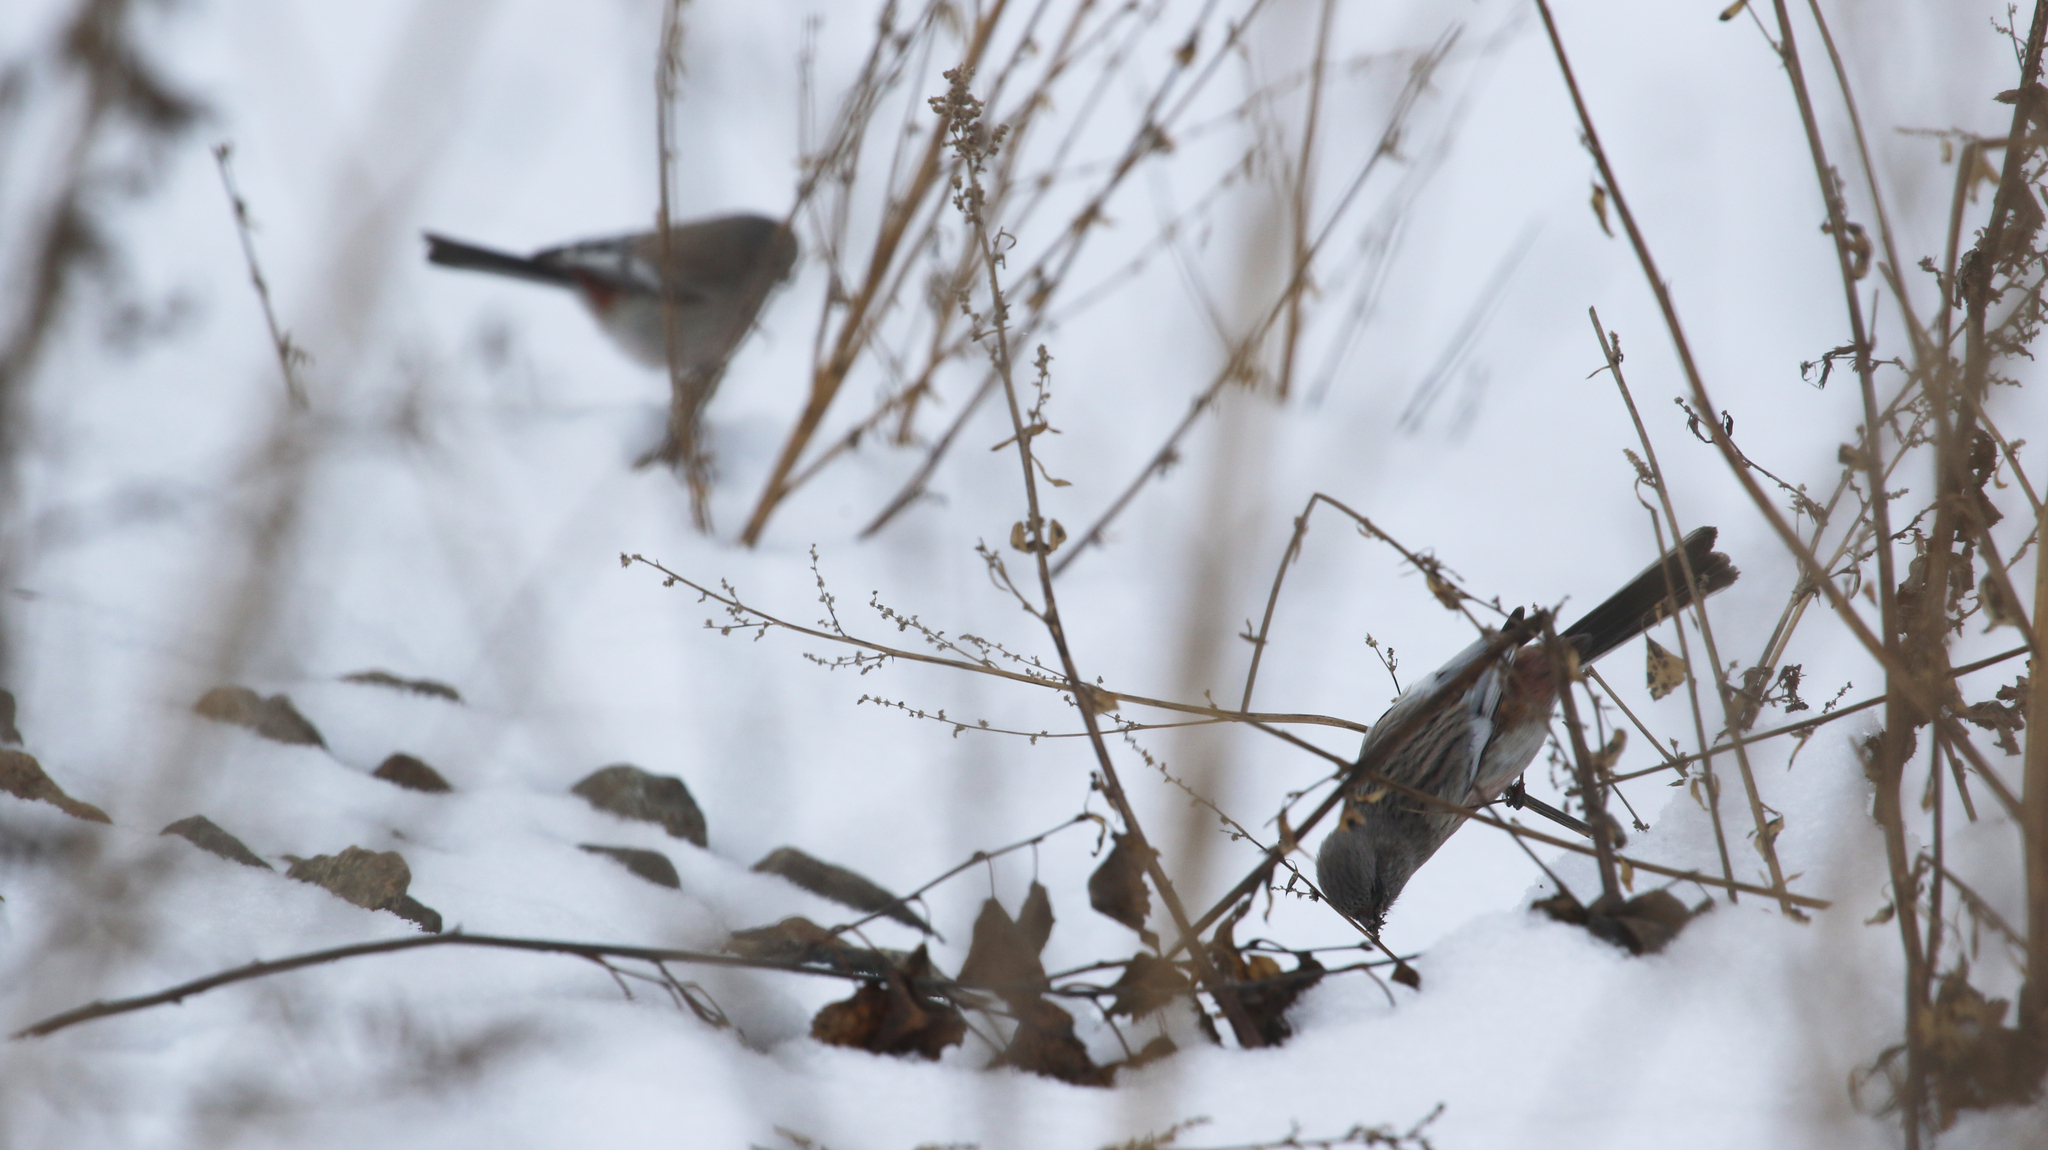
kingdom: Animalia
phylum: Chordata
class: Aves
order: Passeriformes
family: Fringillidae
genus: Carpodacus
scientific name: Carpodacus sibiricus
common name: Long-tailed rosefinch
